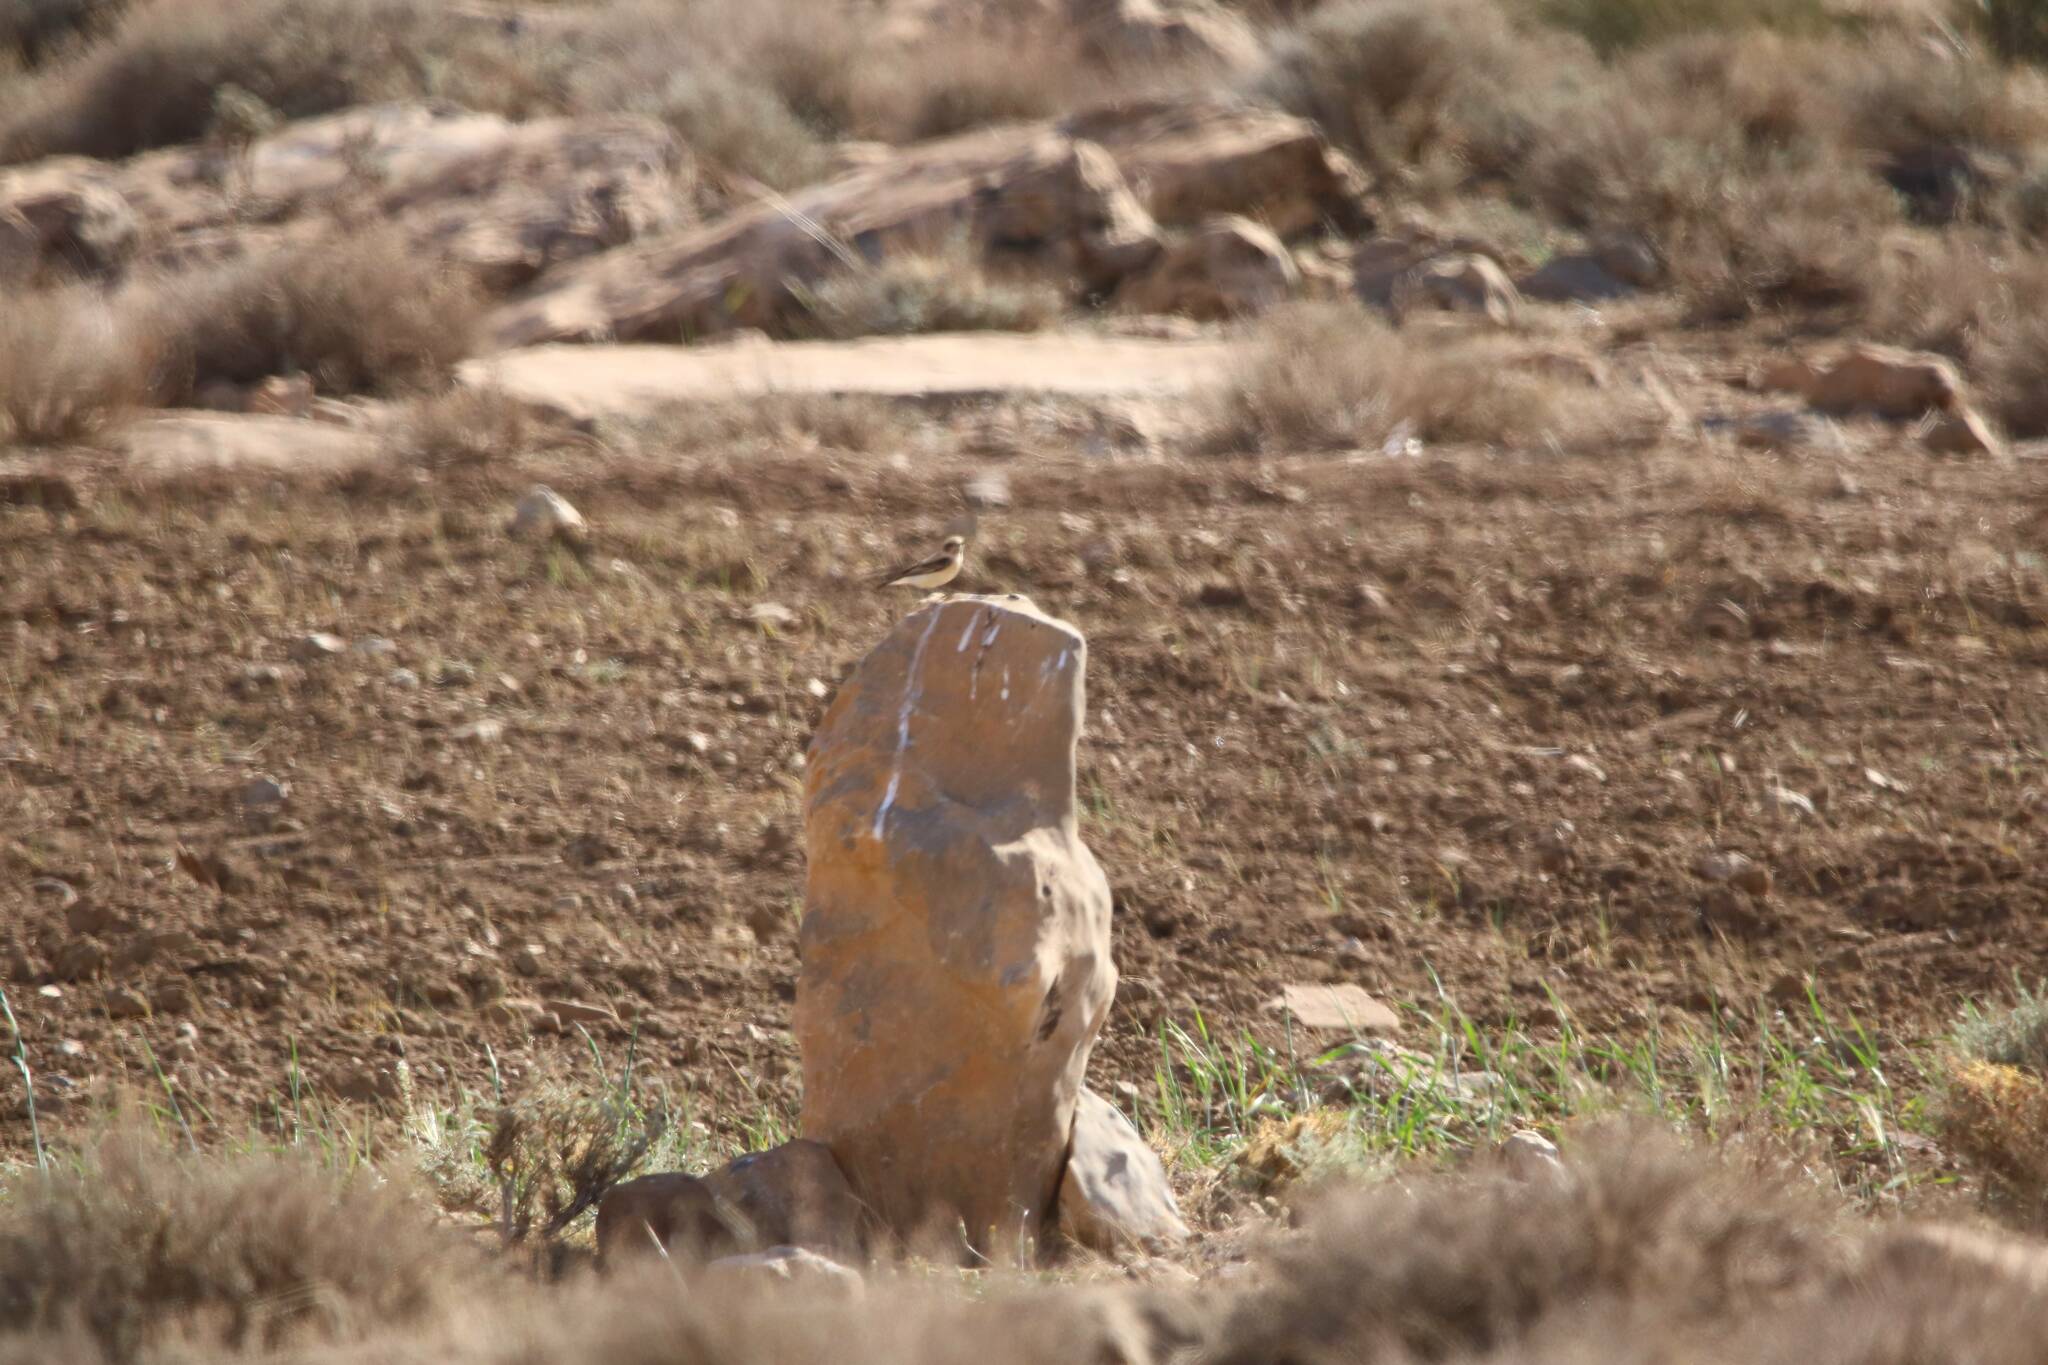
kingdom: Animalia
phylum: Chordata
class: Aves
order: Passeriformes
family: Muscicapidae
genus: Oenanthe
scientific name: Oenanthe hispanica
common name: Black-eared wheatear
